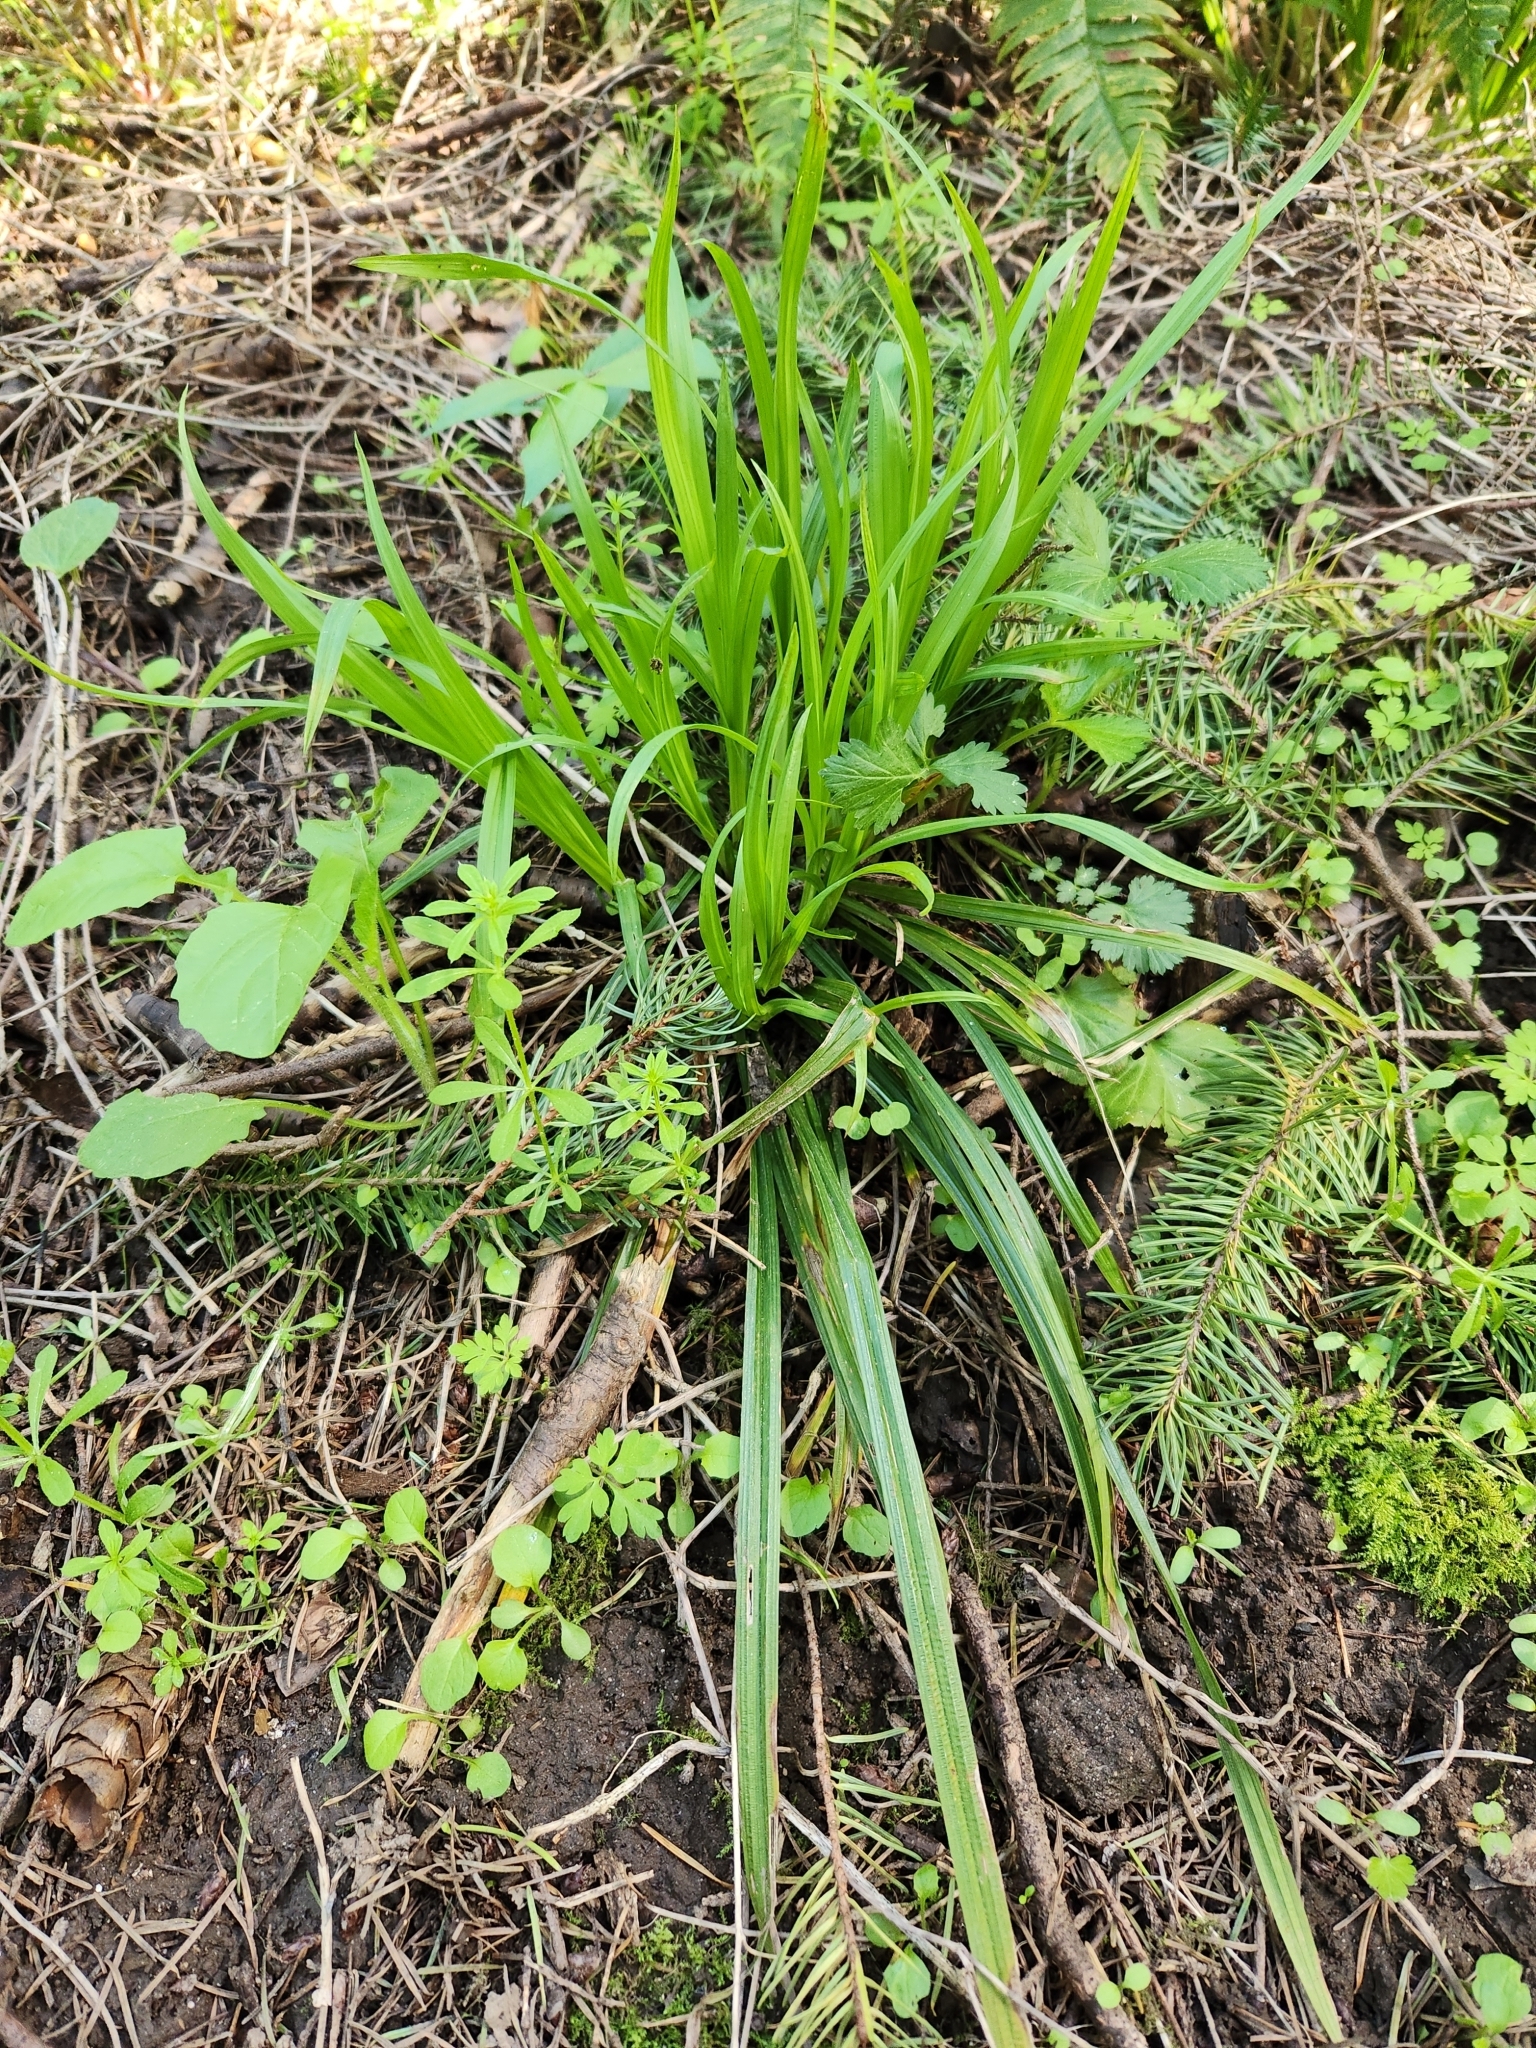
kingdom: Plantae
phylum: Tracheophyta
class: Liliopsida
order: Poales
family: Cyperaceae
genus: Carex
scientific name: Carex hendersonii
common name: Henderson's sedge
